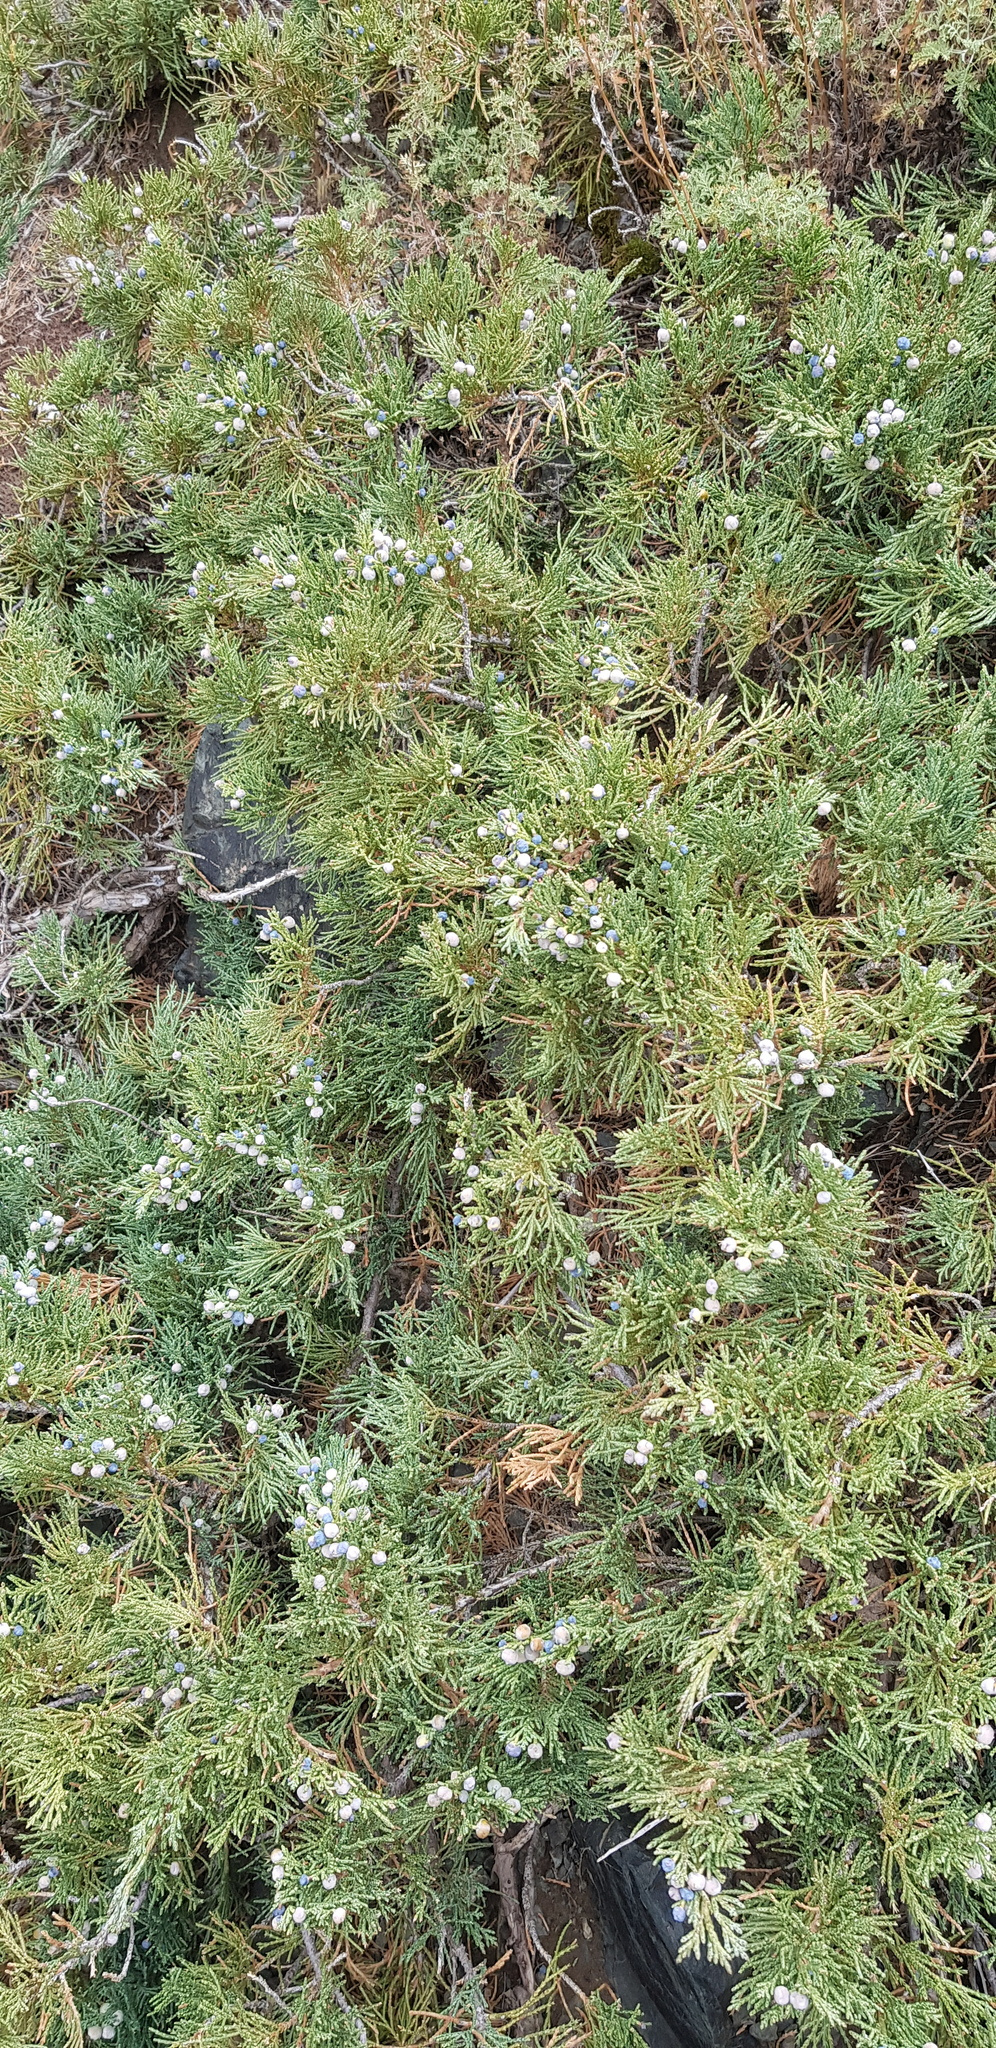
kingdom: Plantae
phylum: Tracheophyta
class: Pinopsida
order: Pinales
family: Cupressaceae
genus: Juniperus
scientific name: Juniperus sabina
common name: Savin
